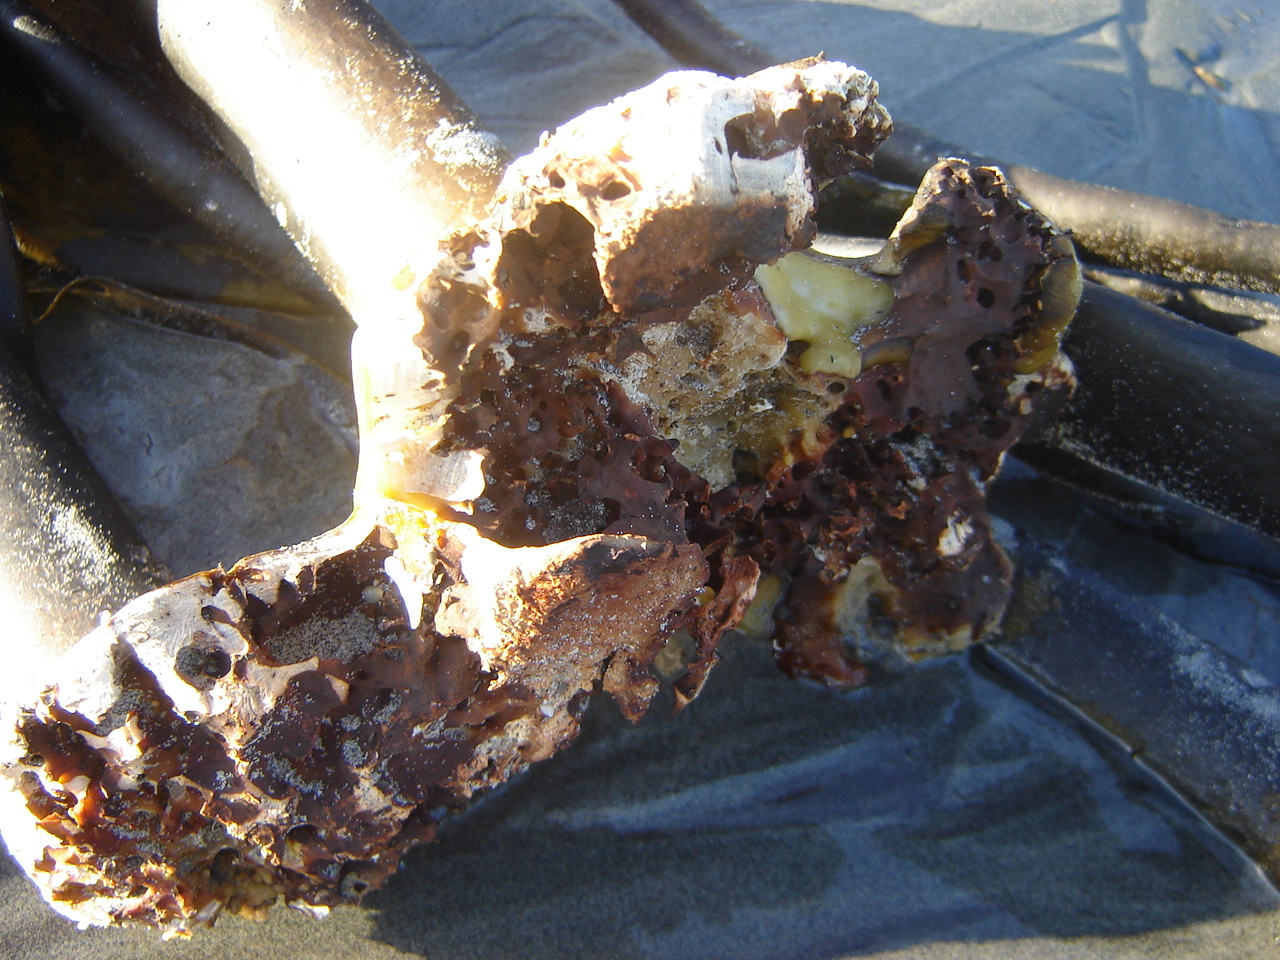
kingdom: Chromista
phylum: Ochrophyta
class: Phaeophyceae
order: Fucales
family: Durvillaeaceae
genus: Durvillaea
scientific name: Durvillaea antarctica
